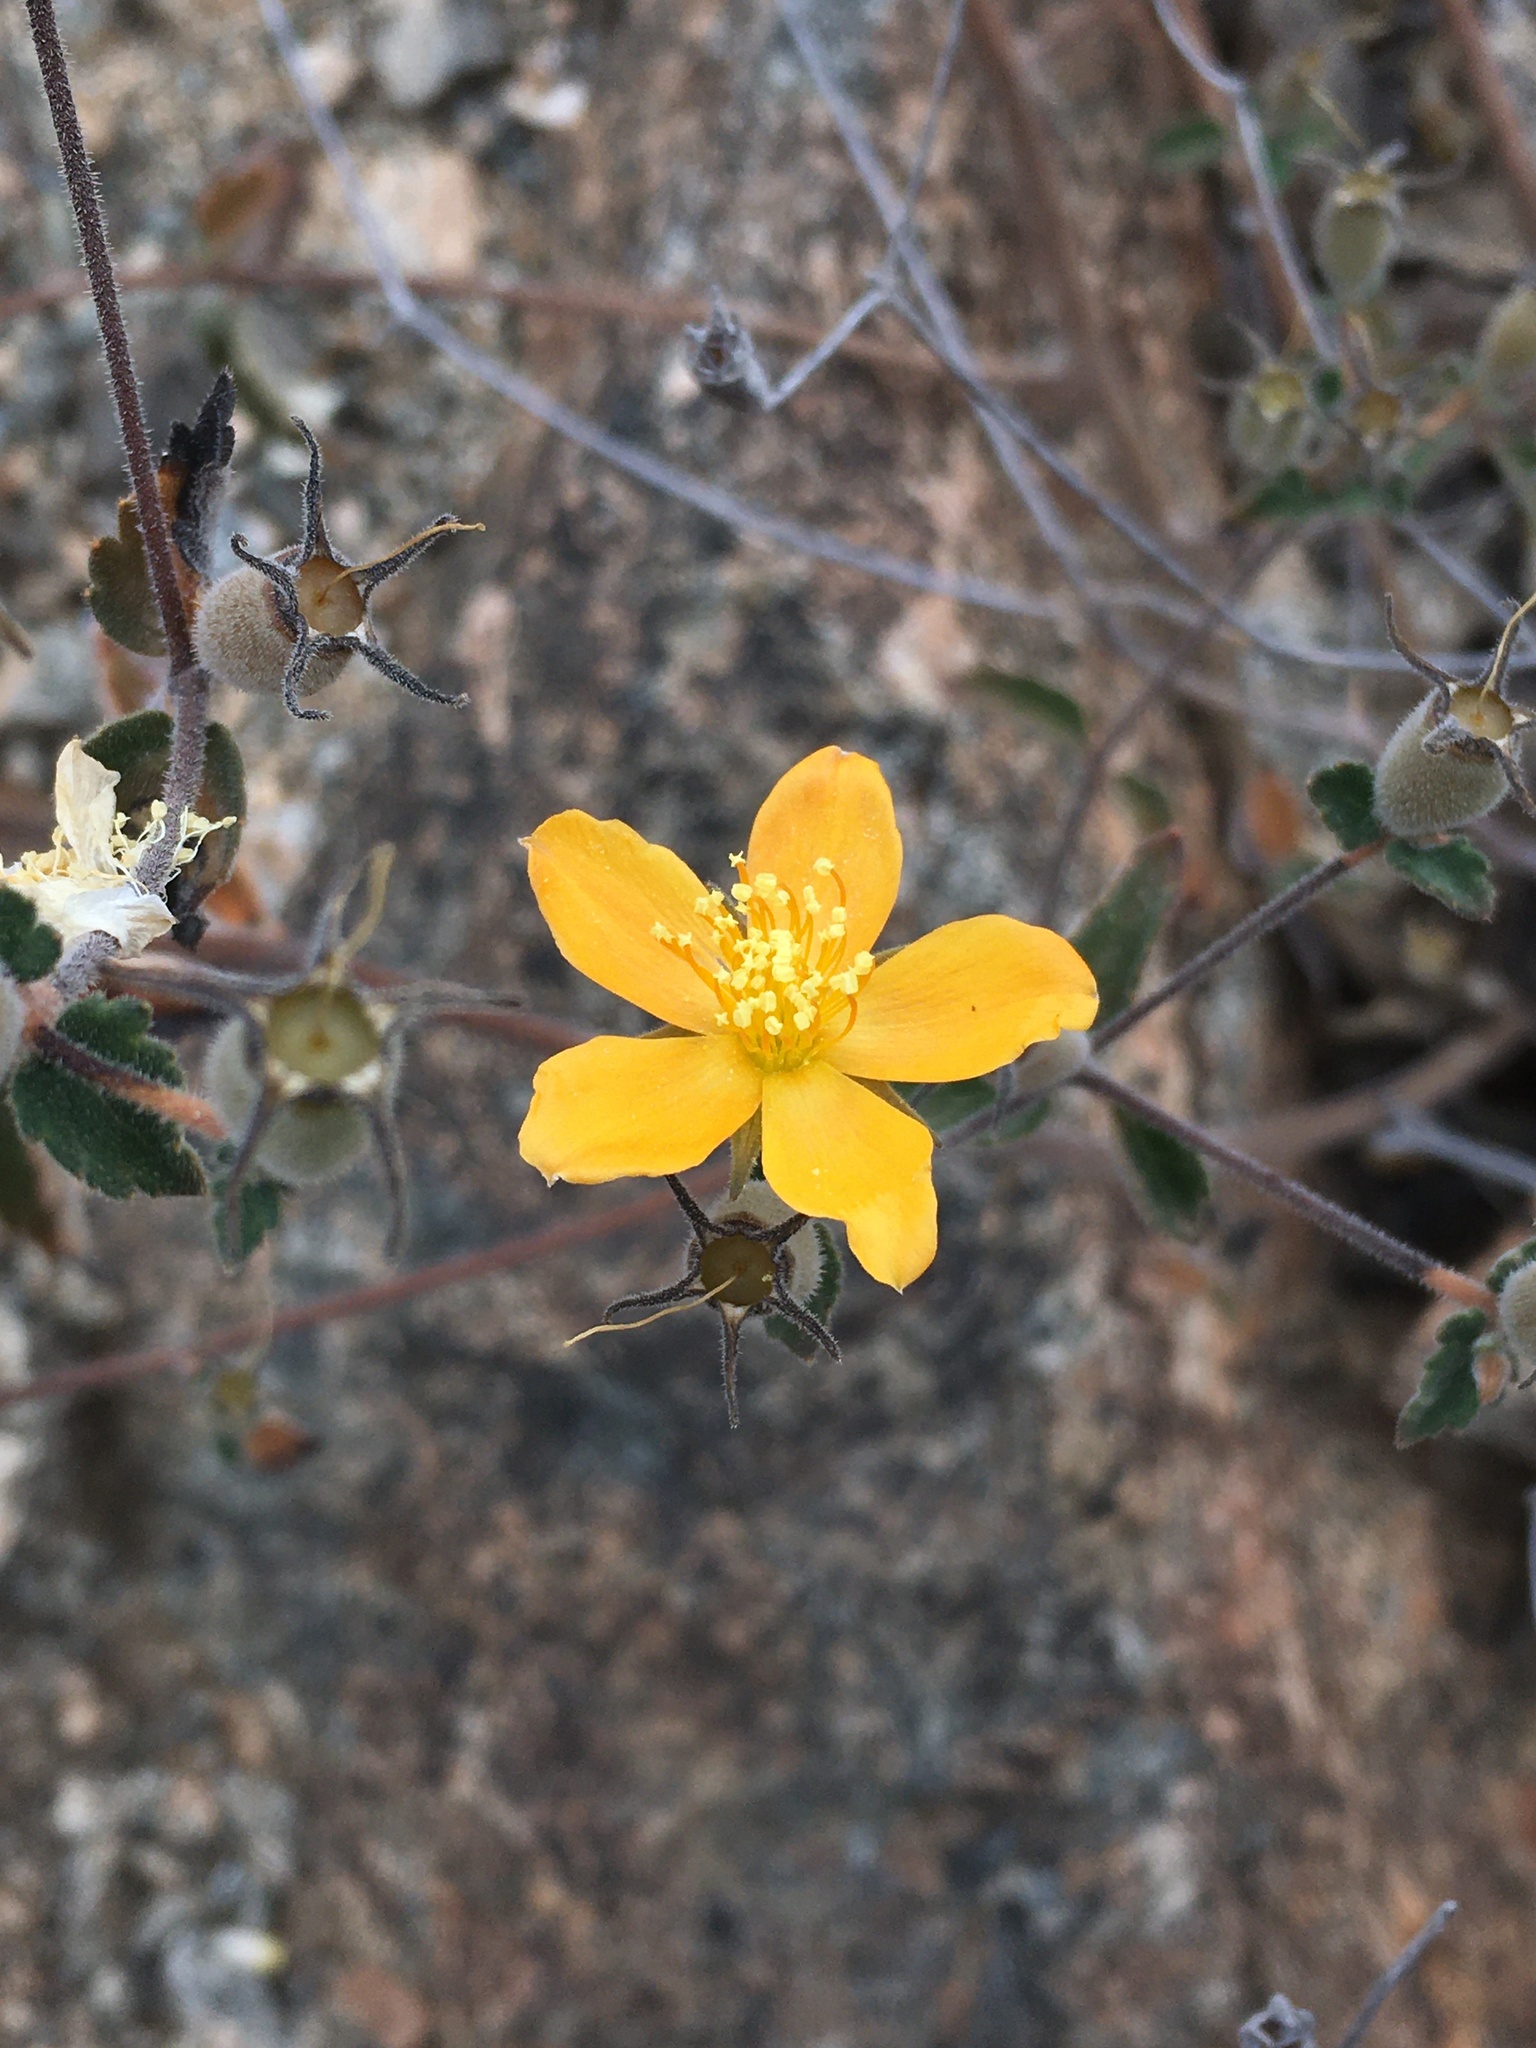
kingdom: Plantae
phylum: Tracheophyta
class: Magnoliopsida
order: Cornales
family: Loasaceae
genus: Mentzelia
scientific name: Mentzelia scabra
